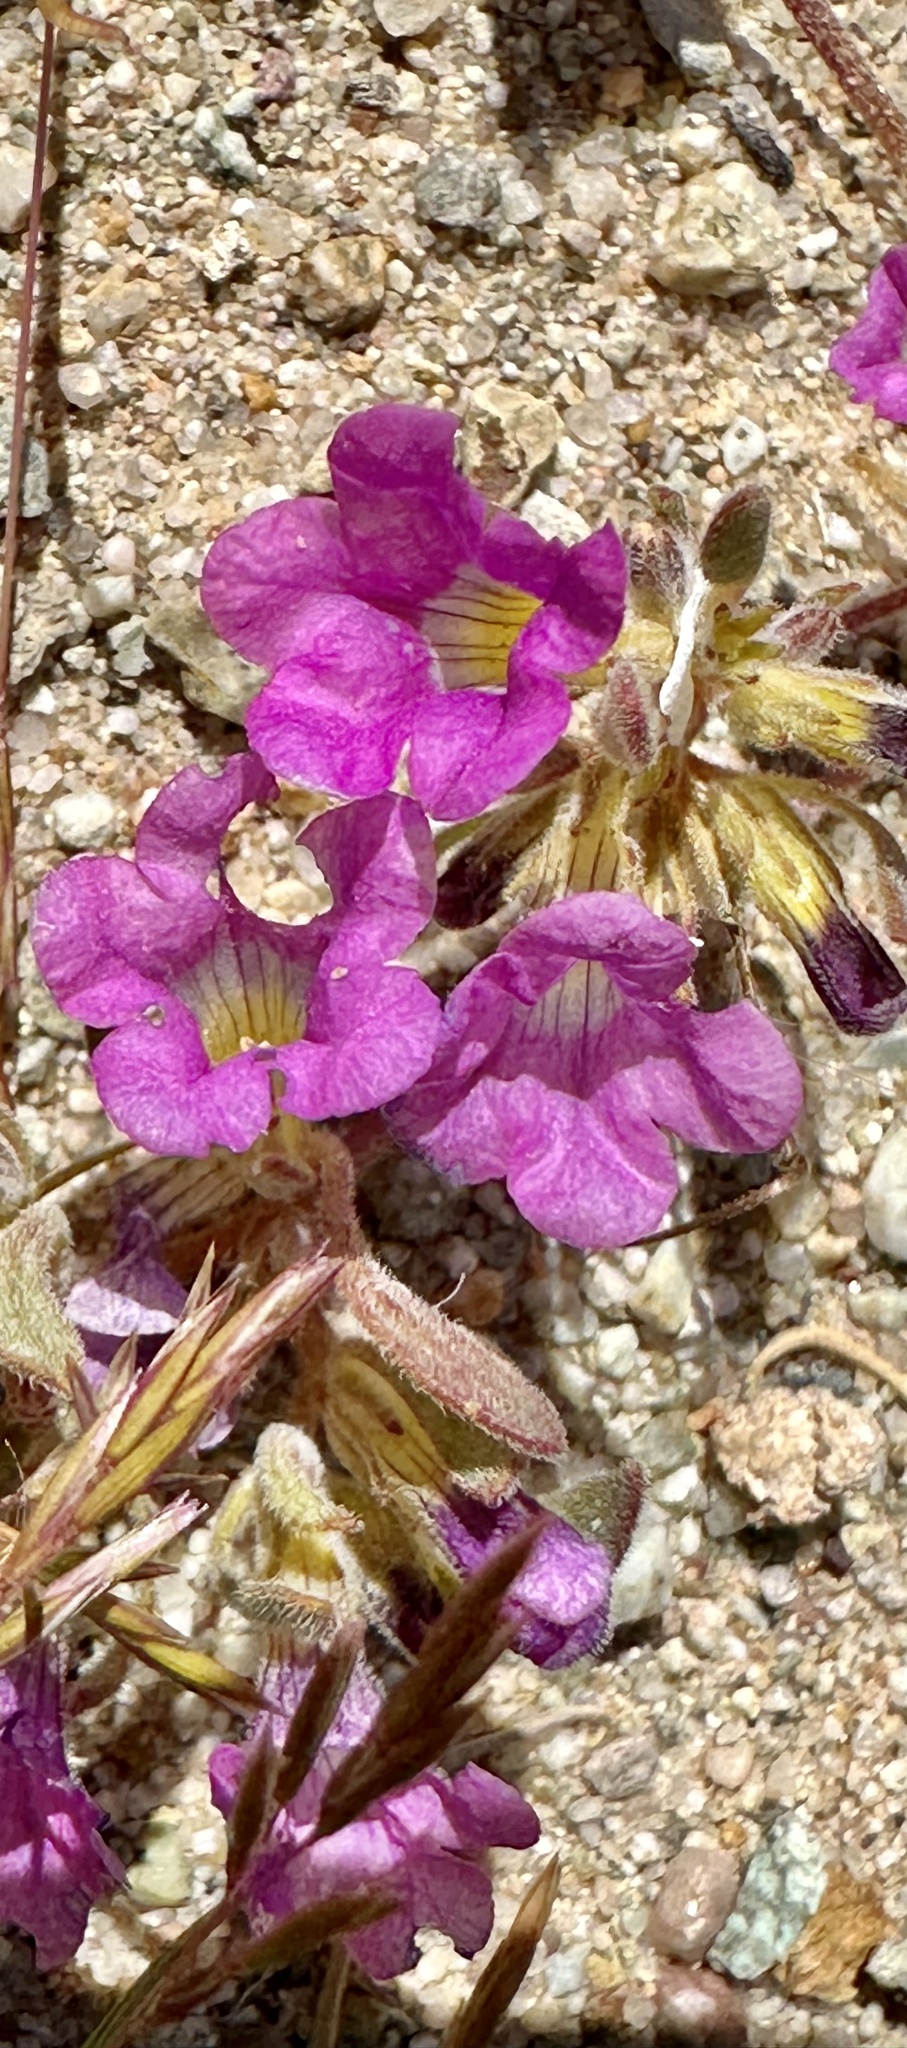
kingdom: Plantae
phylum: Tracheophyta
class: Magnoliopsida
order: Boraginales
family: Namaceae
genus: Nama
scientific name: Nama demissa
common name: Leafy nama
